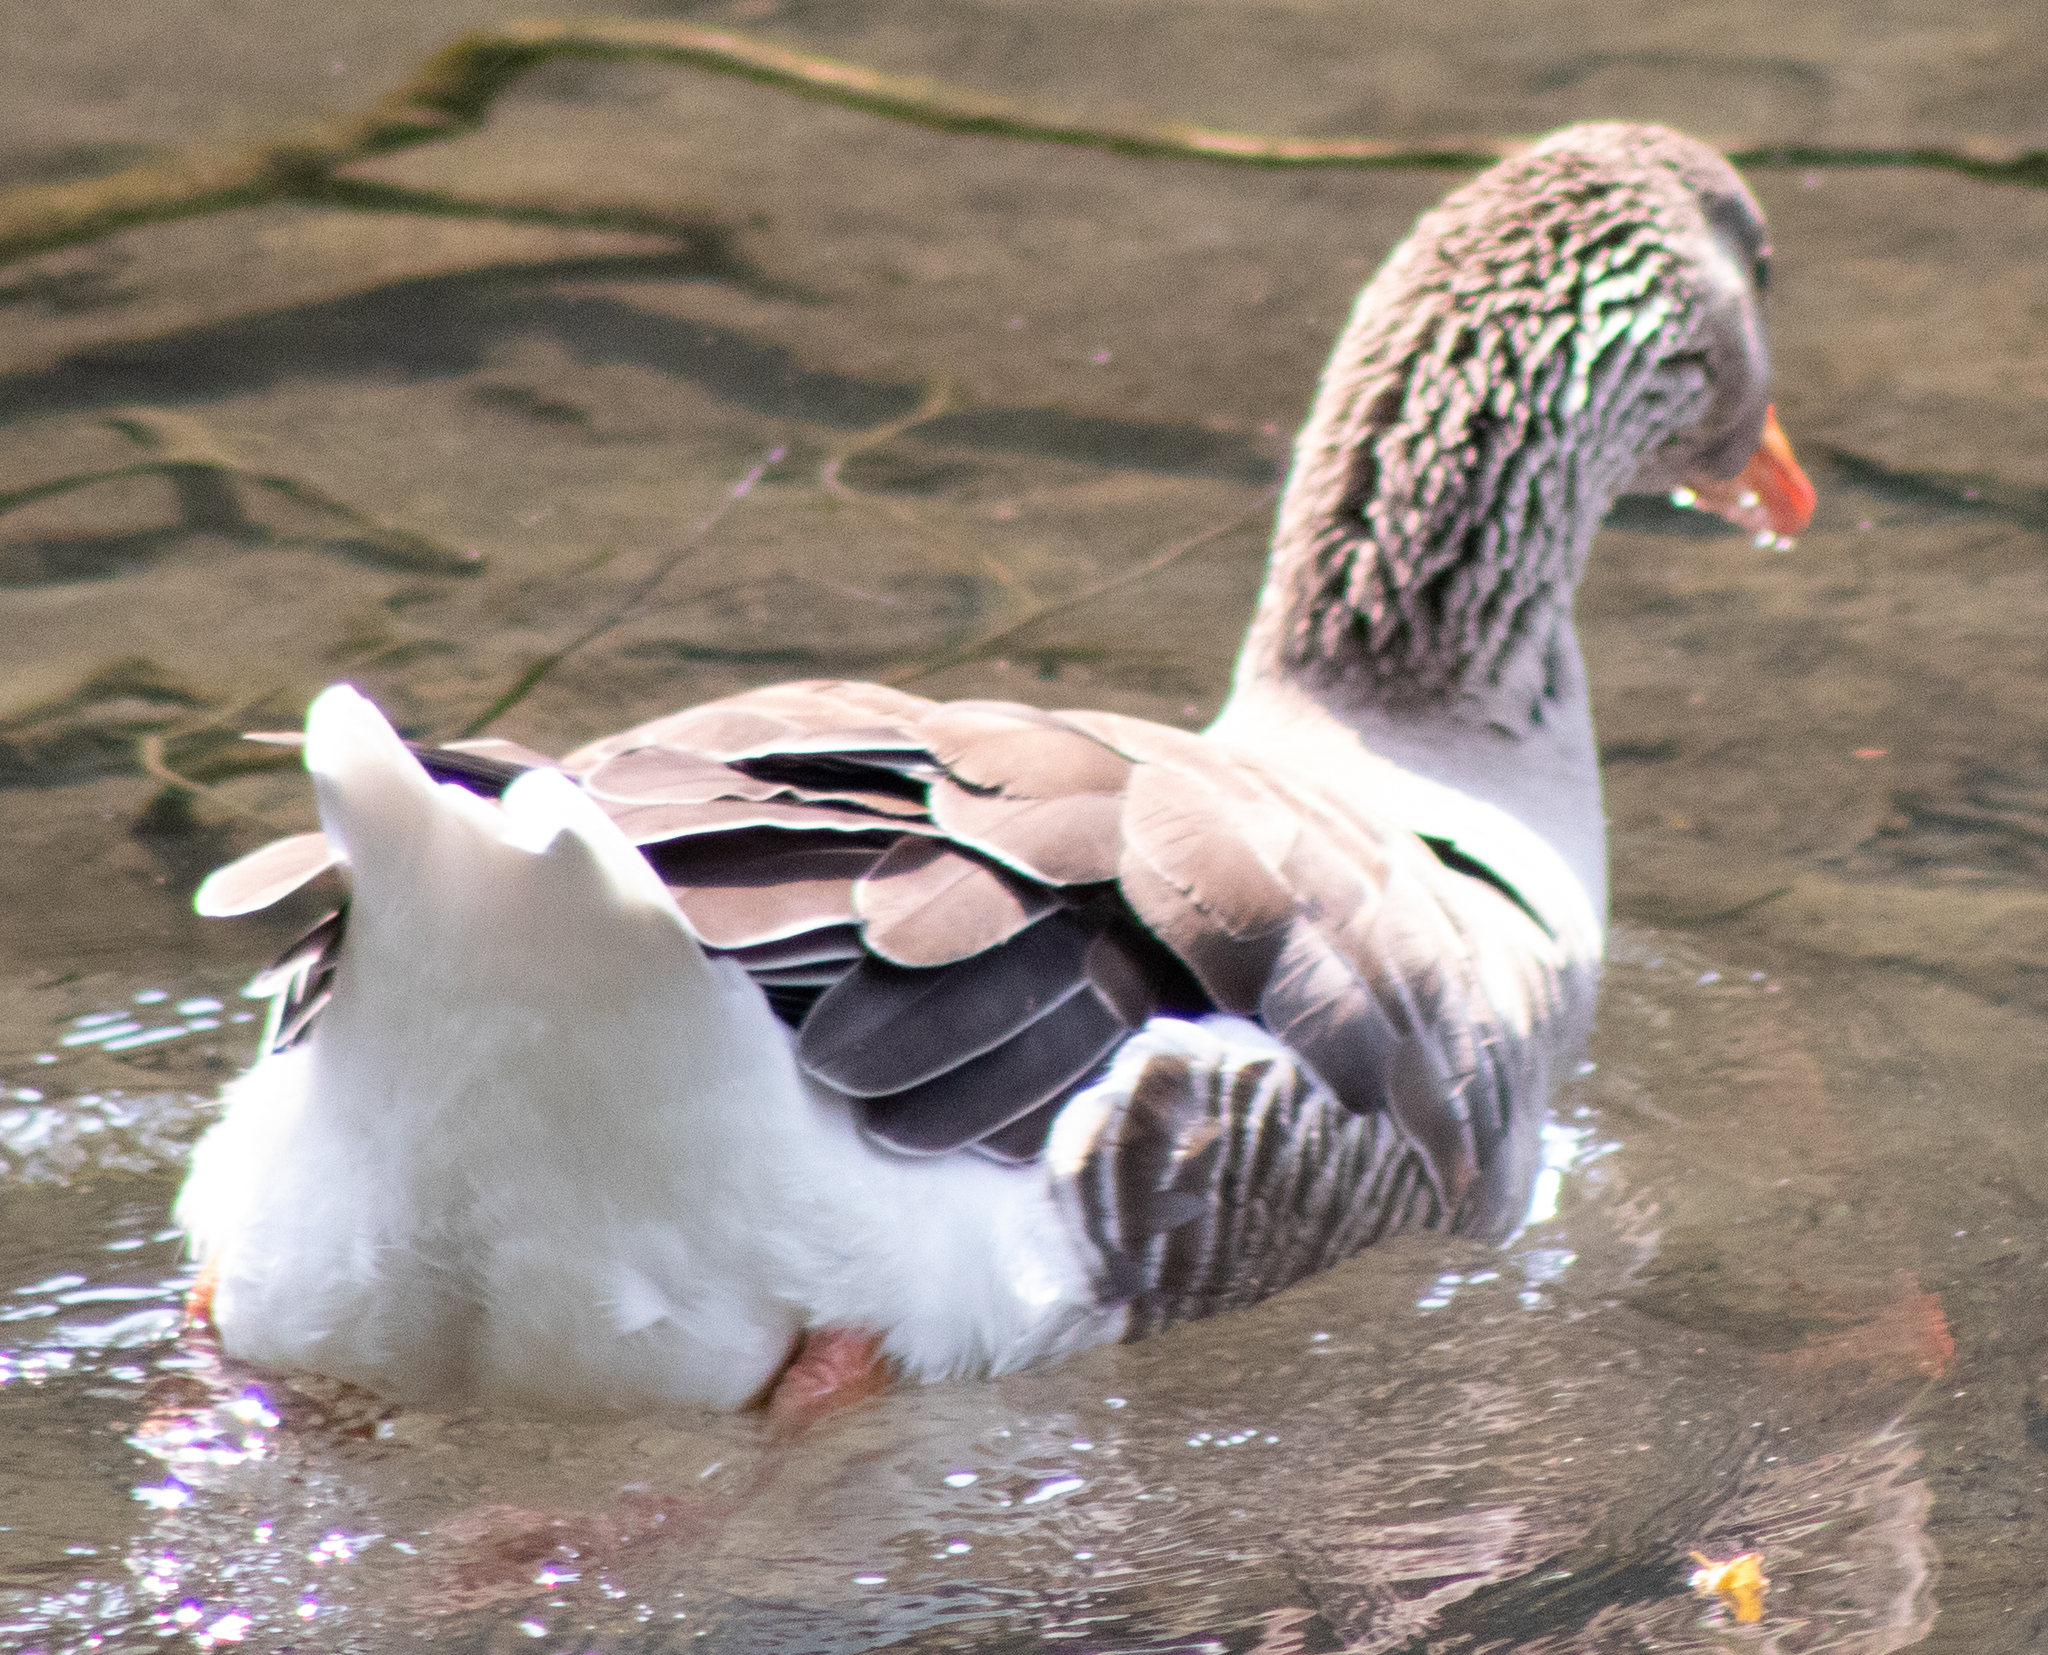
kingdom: Animalia
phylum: Chordata
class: Aves
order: Anseriformes
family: Anatidae
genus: Anser
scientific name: Anser anser
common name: Greylag goose
